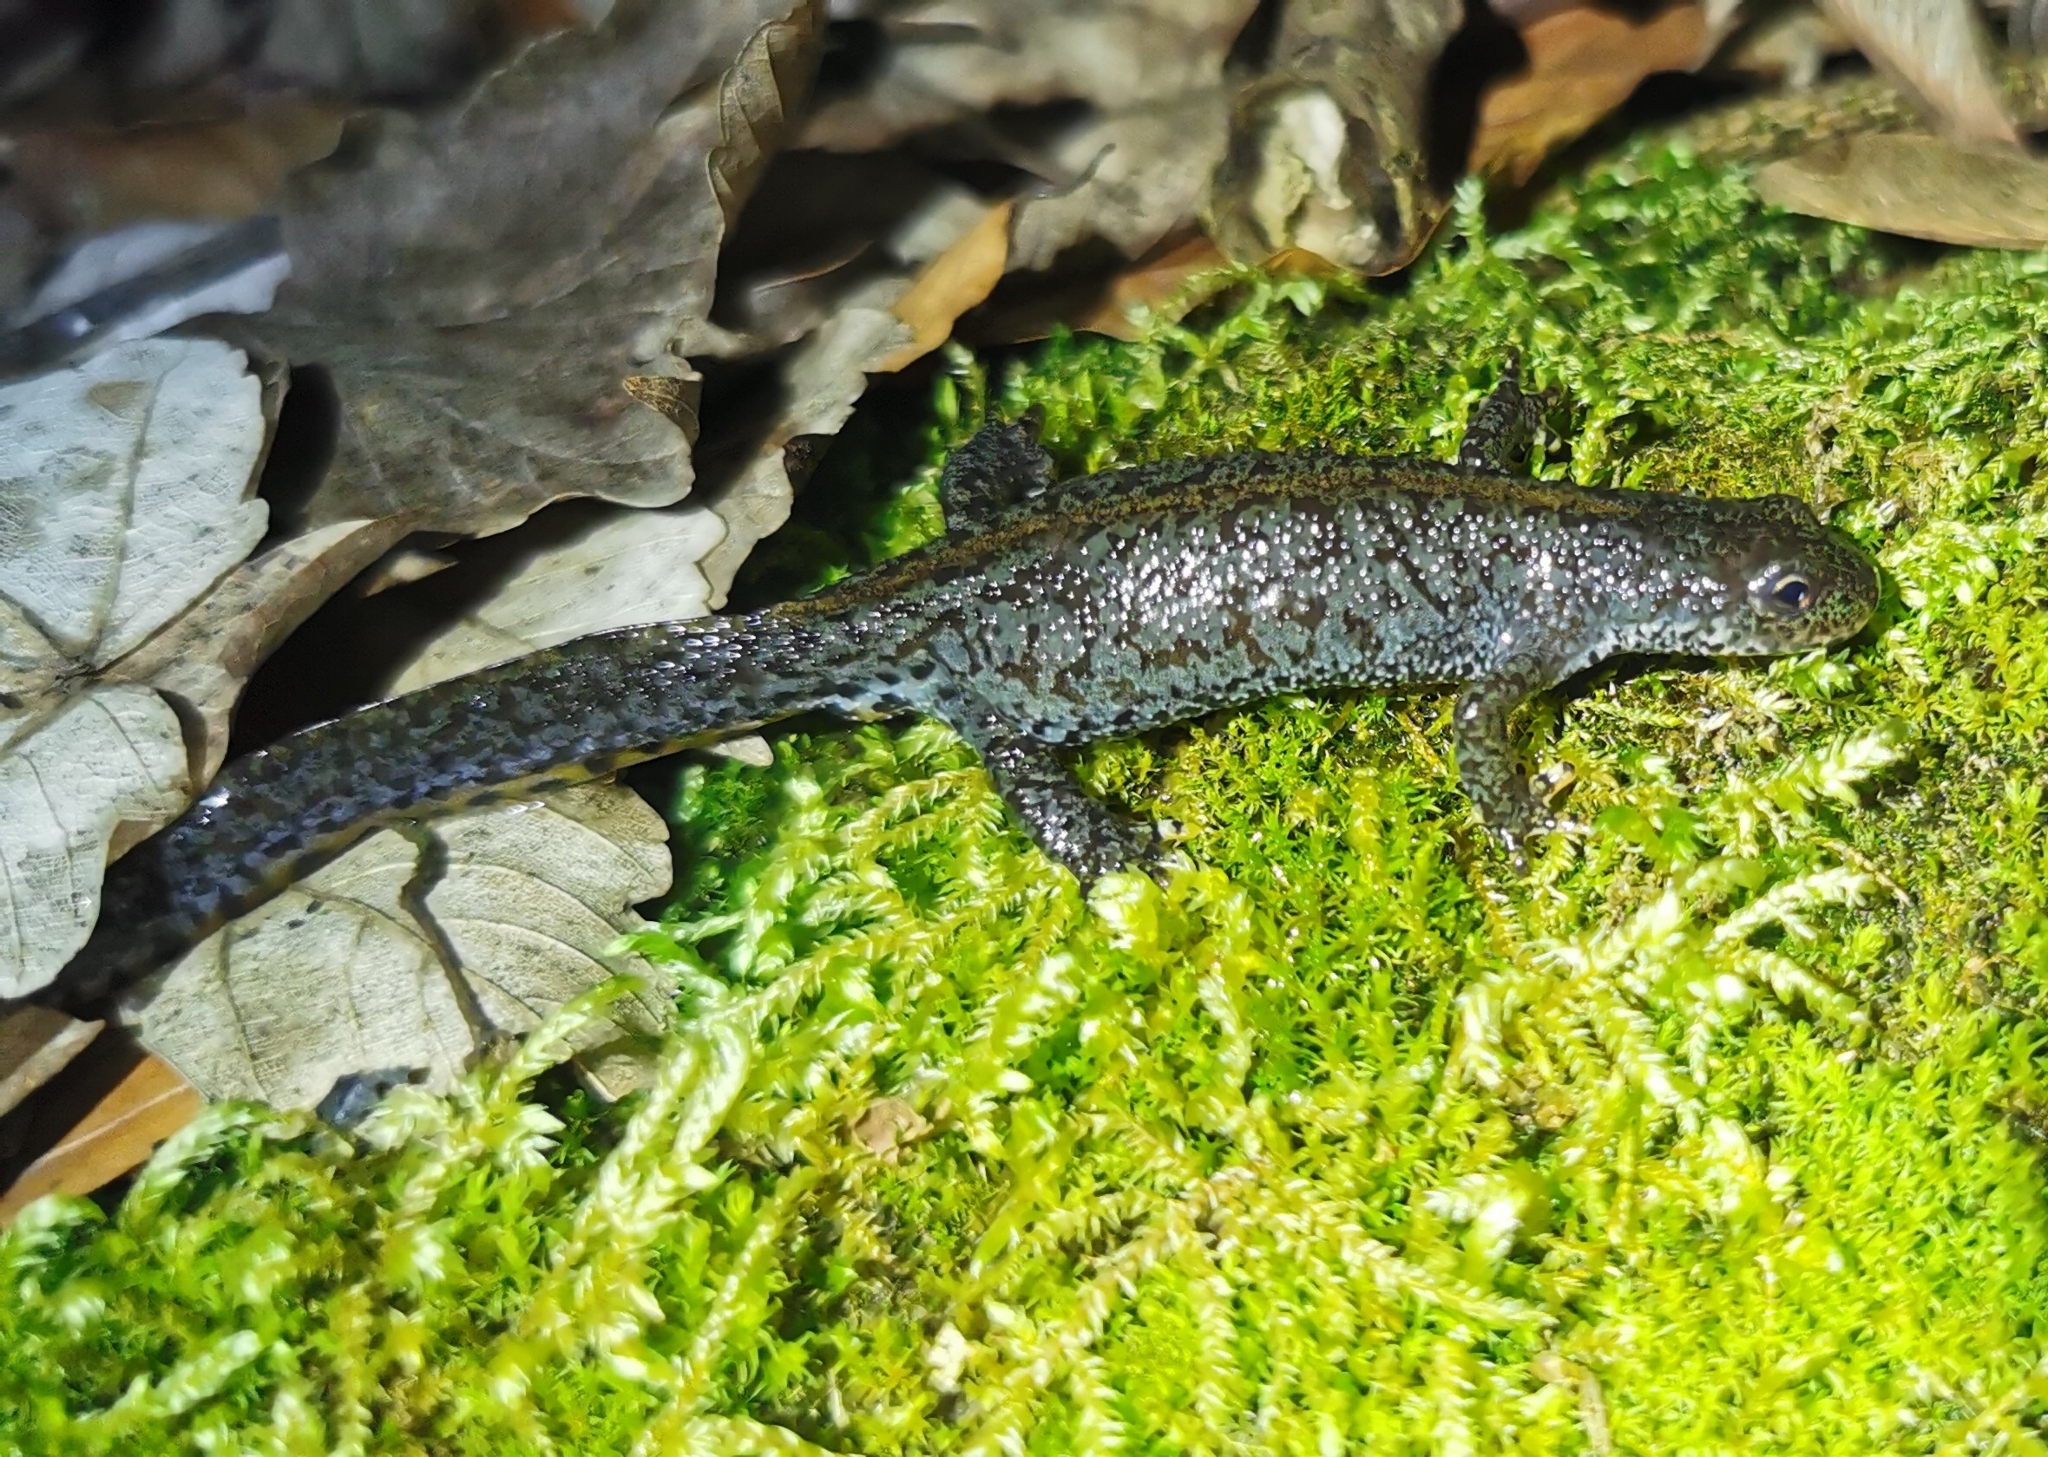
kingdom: Animalia
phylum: Chordata
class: Amphibia
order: Caudata
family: Salamandridae
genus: Ichthyosaura
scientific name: Ichthyosaura alpestris
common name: Alpine newt
